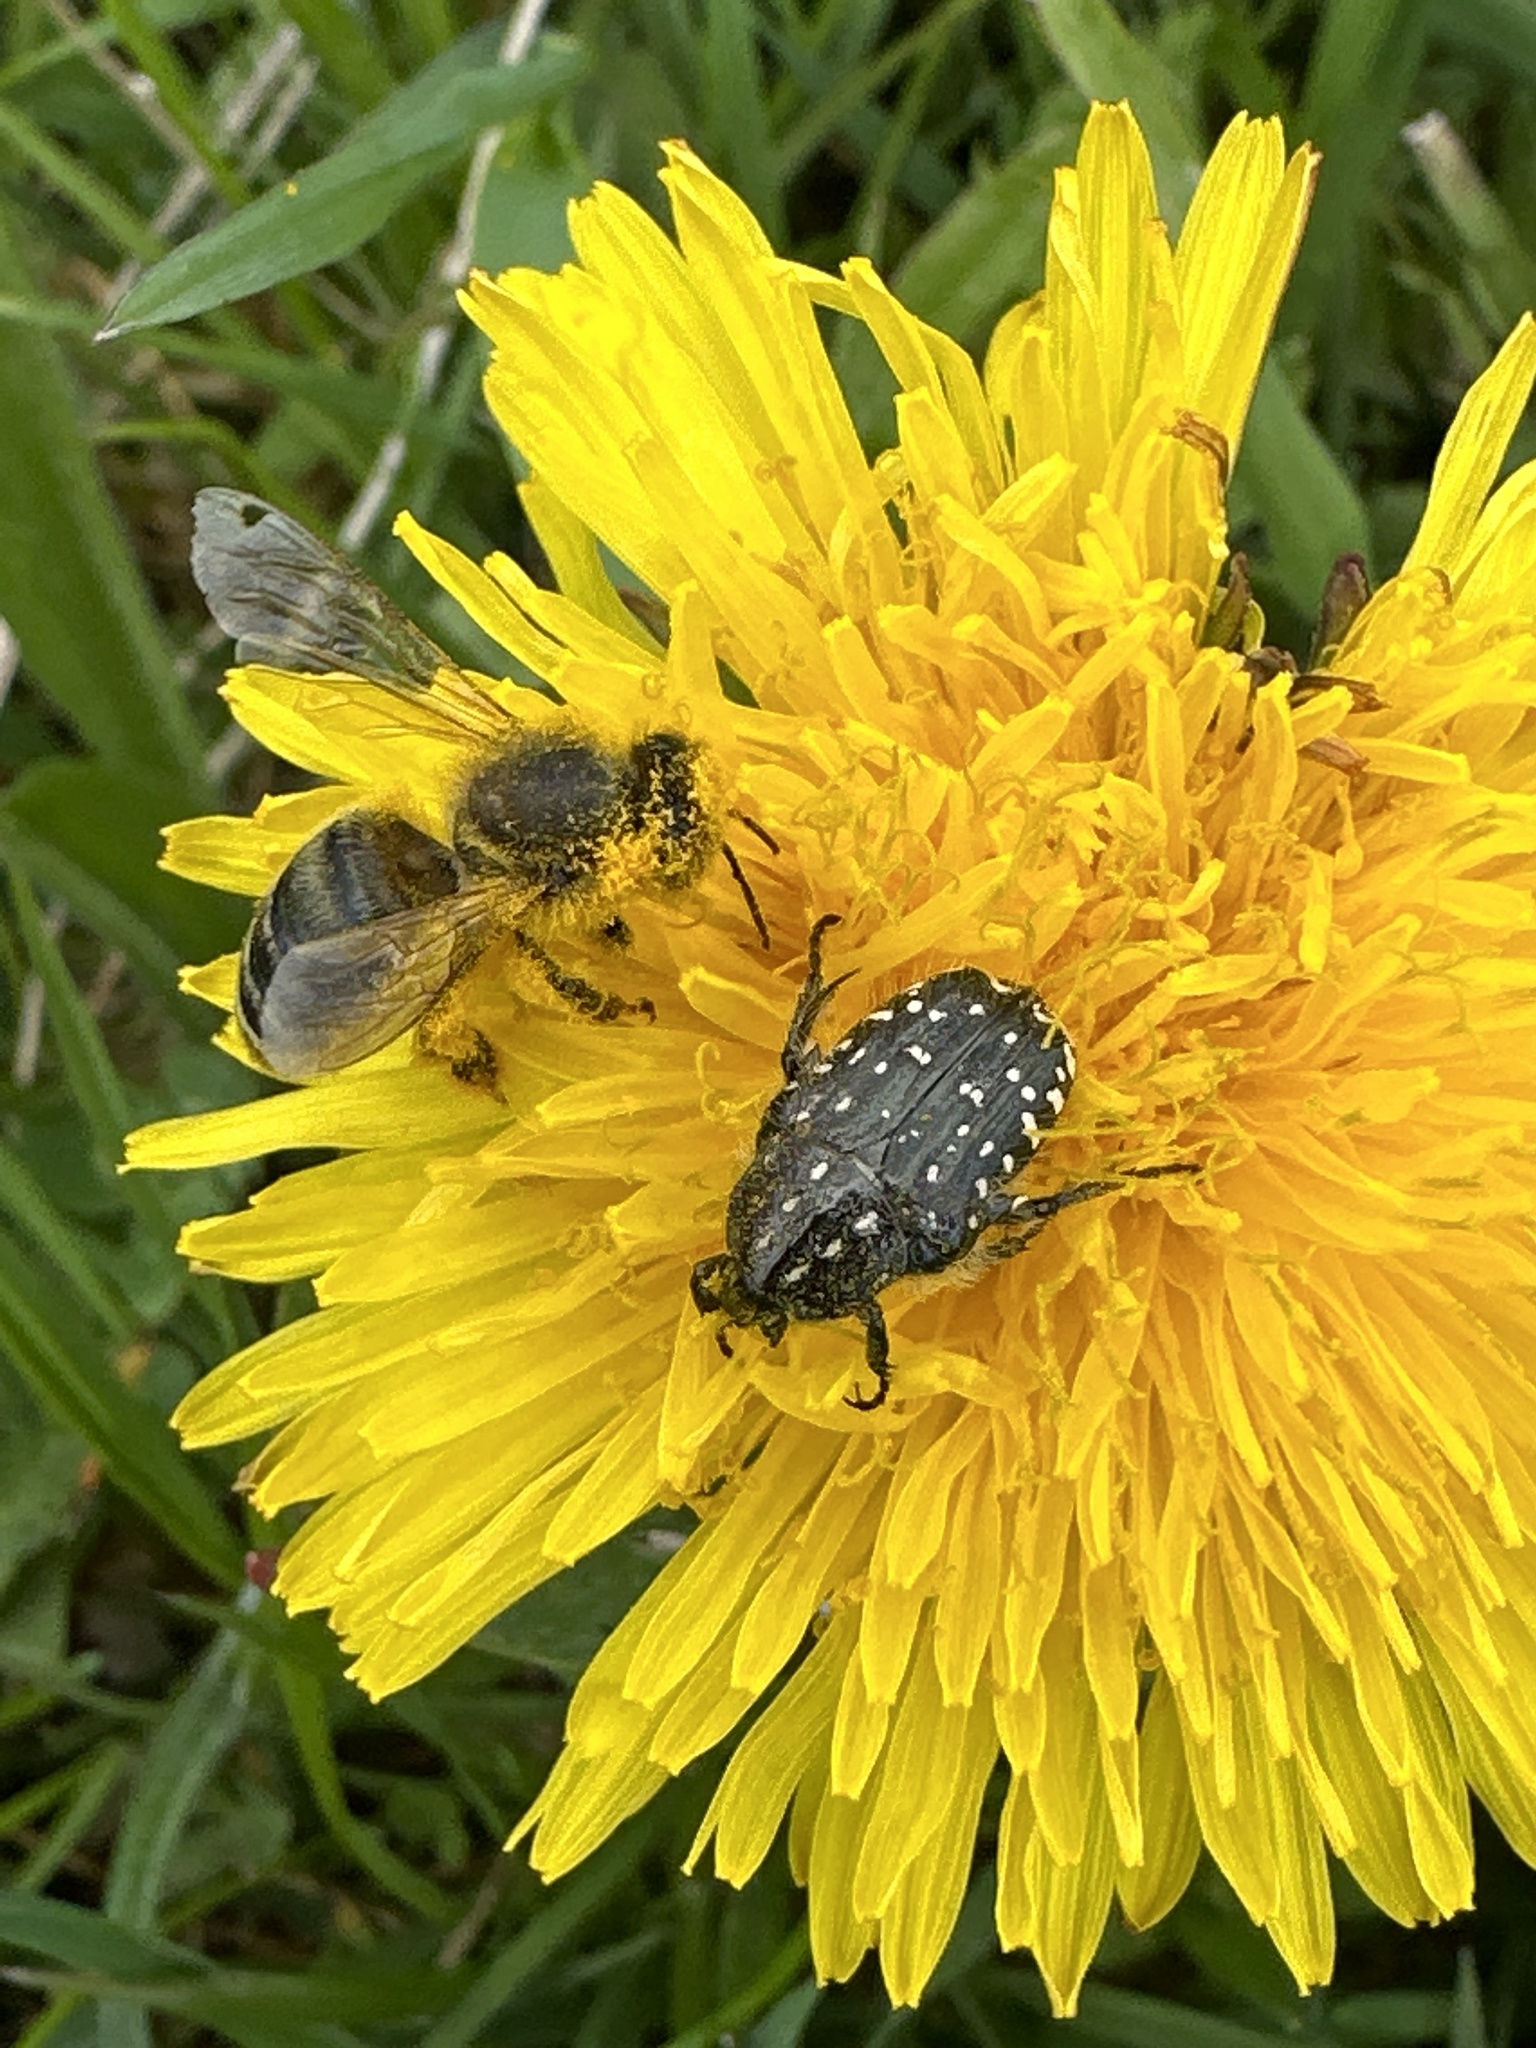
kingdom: Animalia
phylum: Arthropoda
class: Insecta
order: Coleoptera
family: Scarabaeidae
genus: Oxythyrea
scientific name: Oxythyrea funesta
